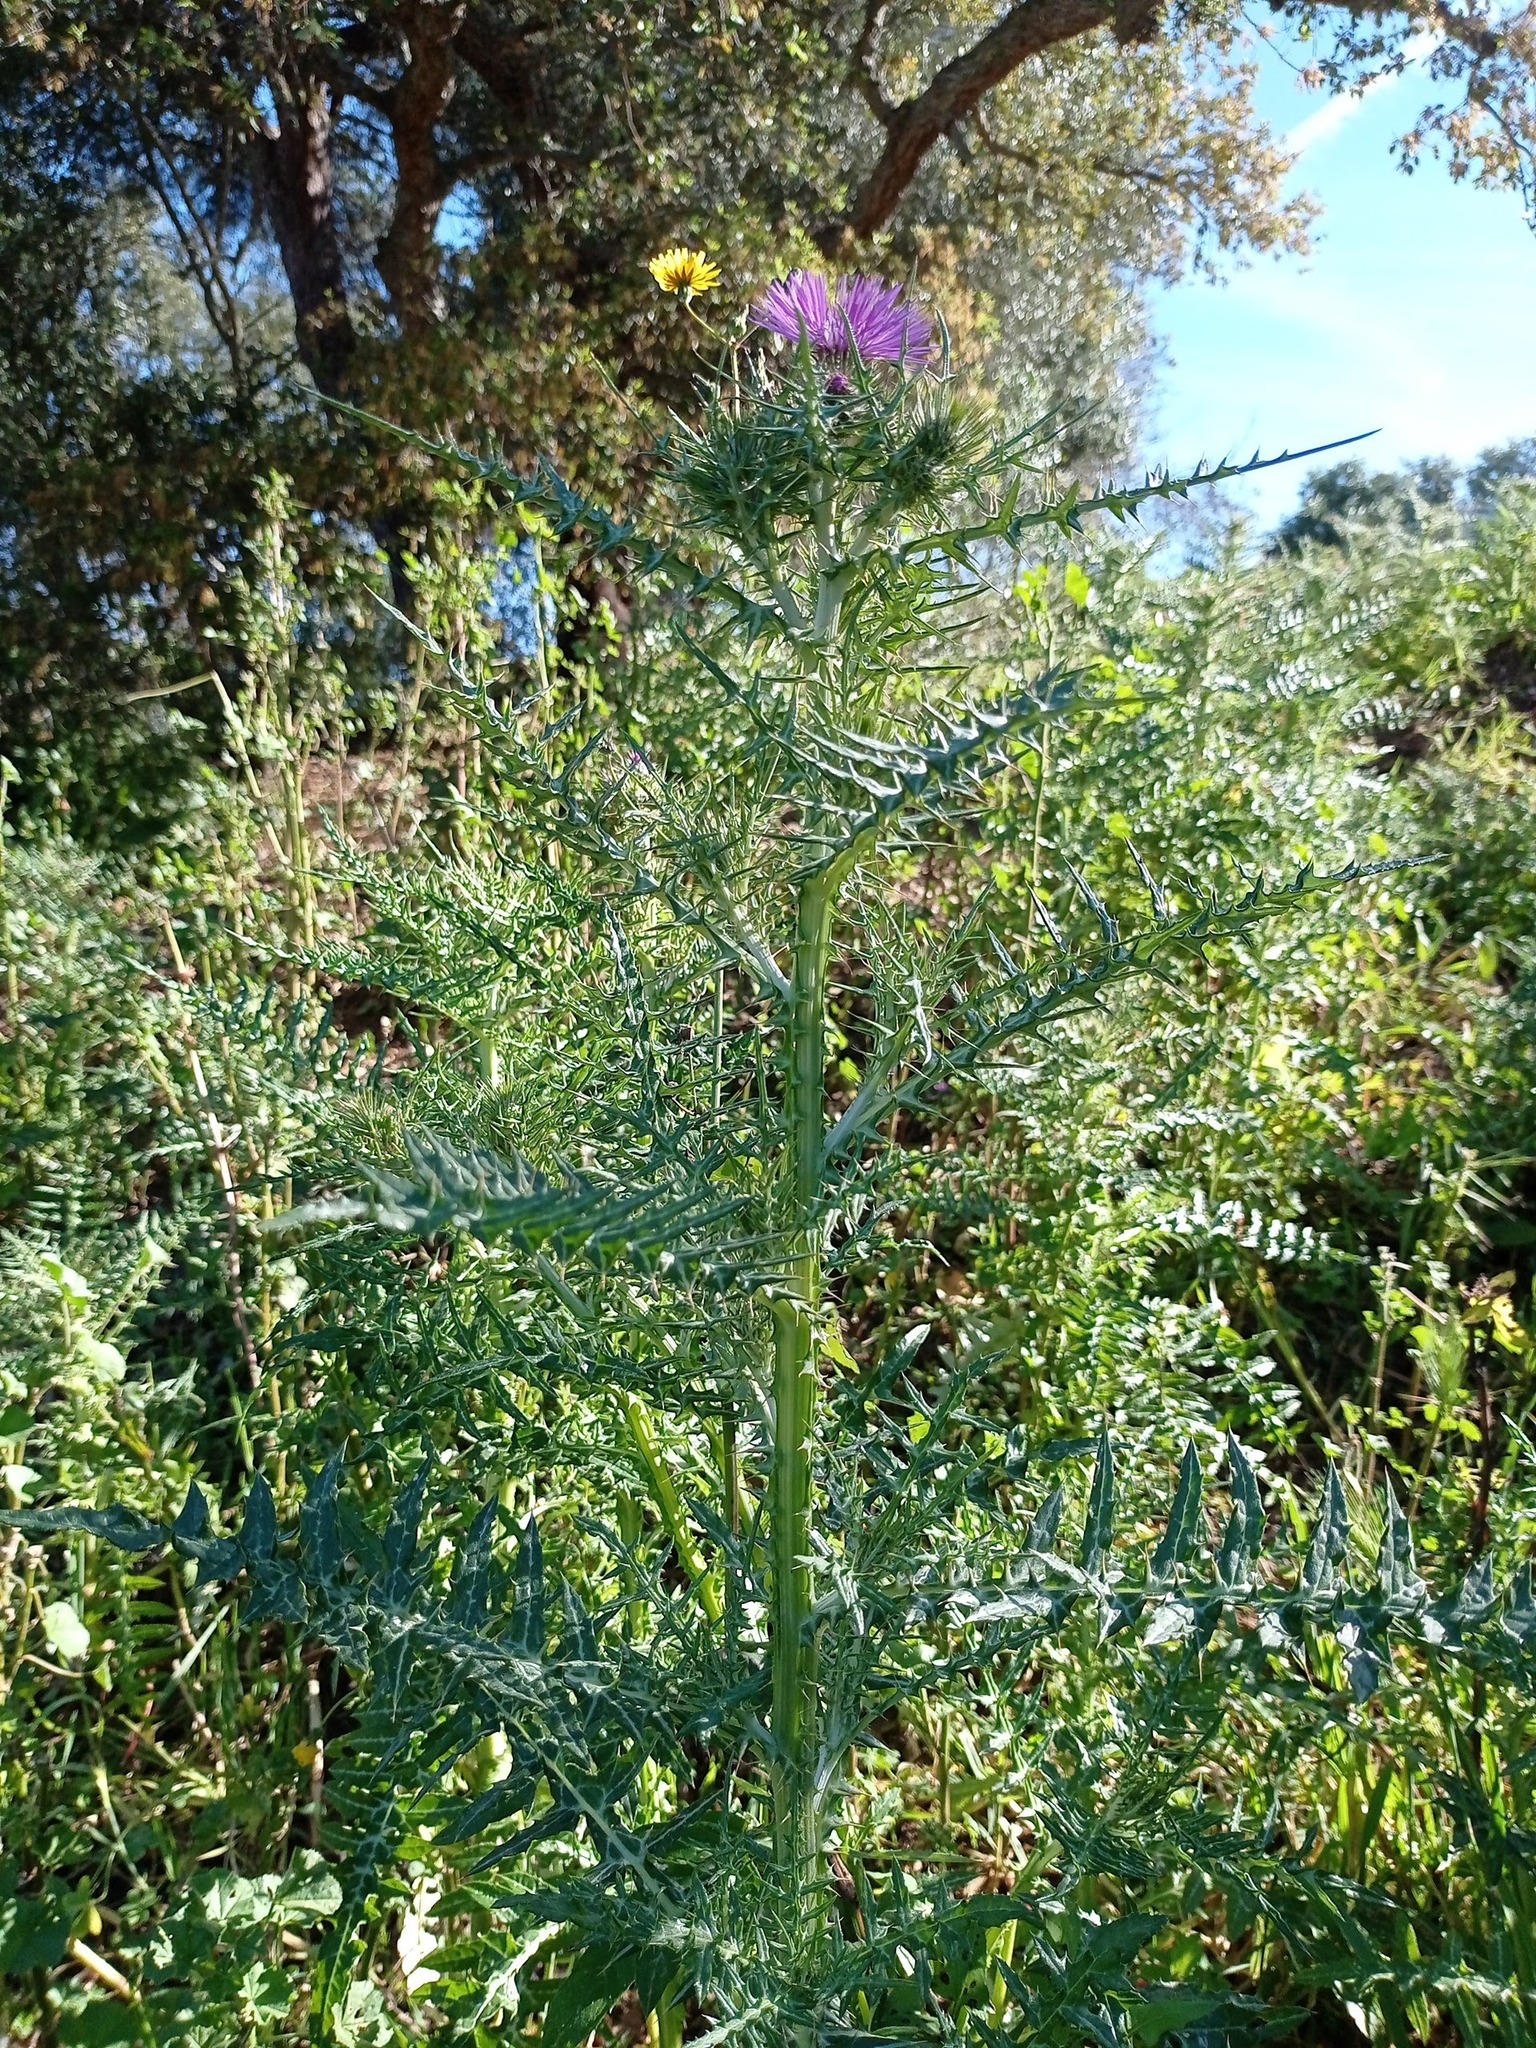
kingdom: Plantae
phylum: Tracheophyta
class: Magnoliopsida
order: Asterales
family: Asteraceae
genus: Galactites
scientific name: Galactites tomentosa
